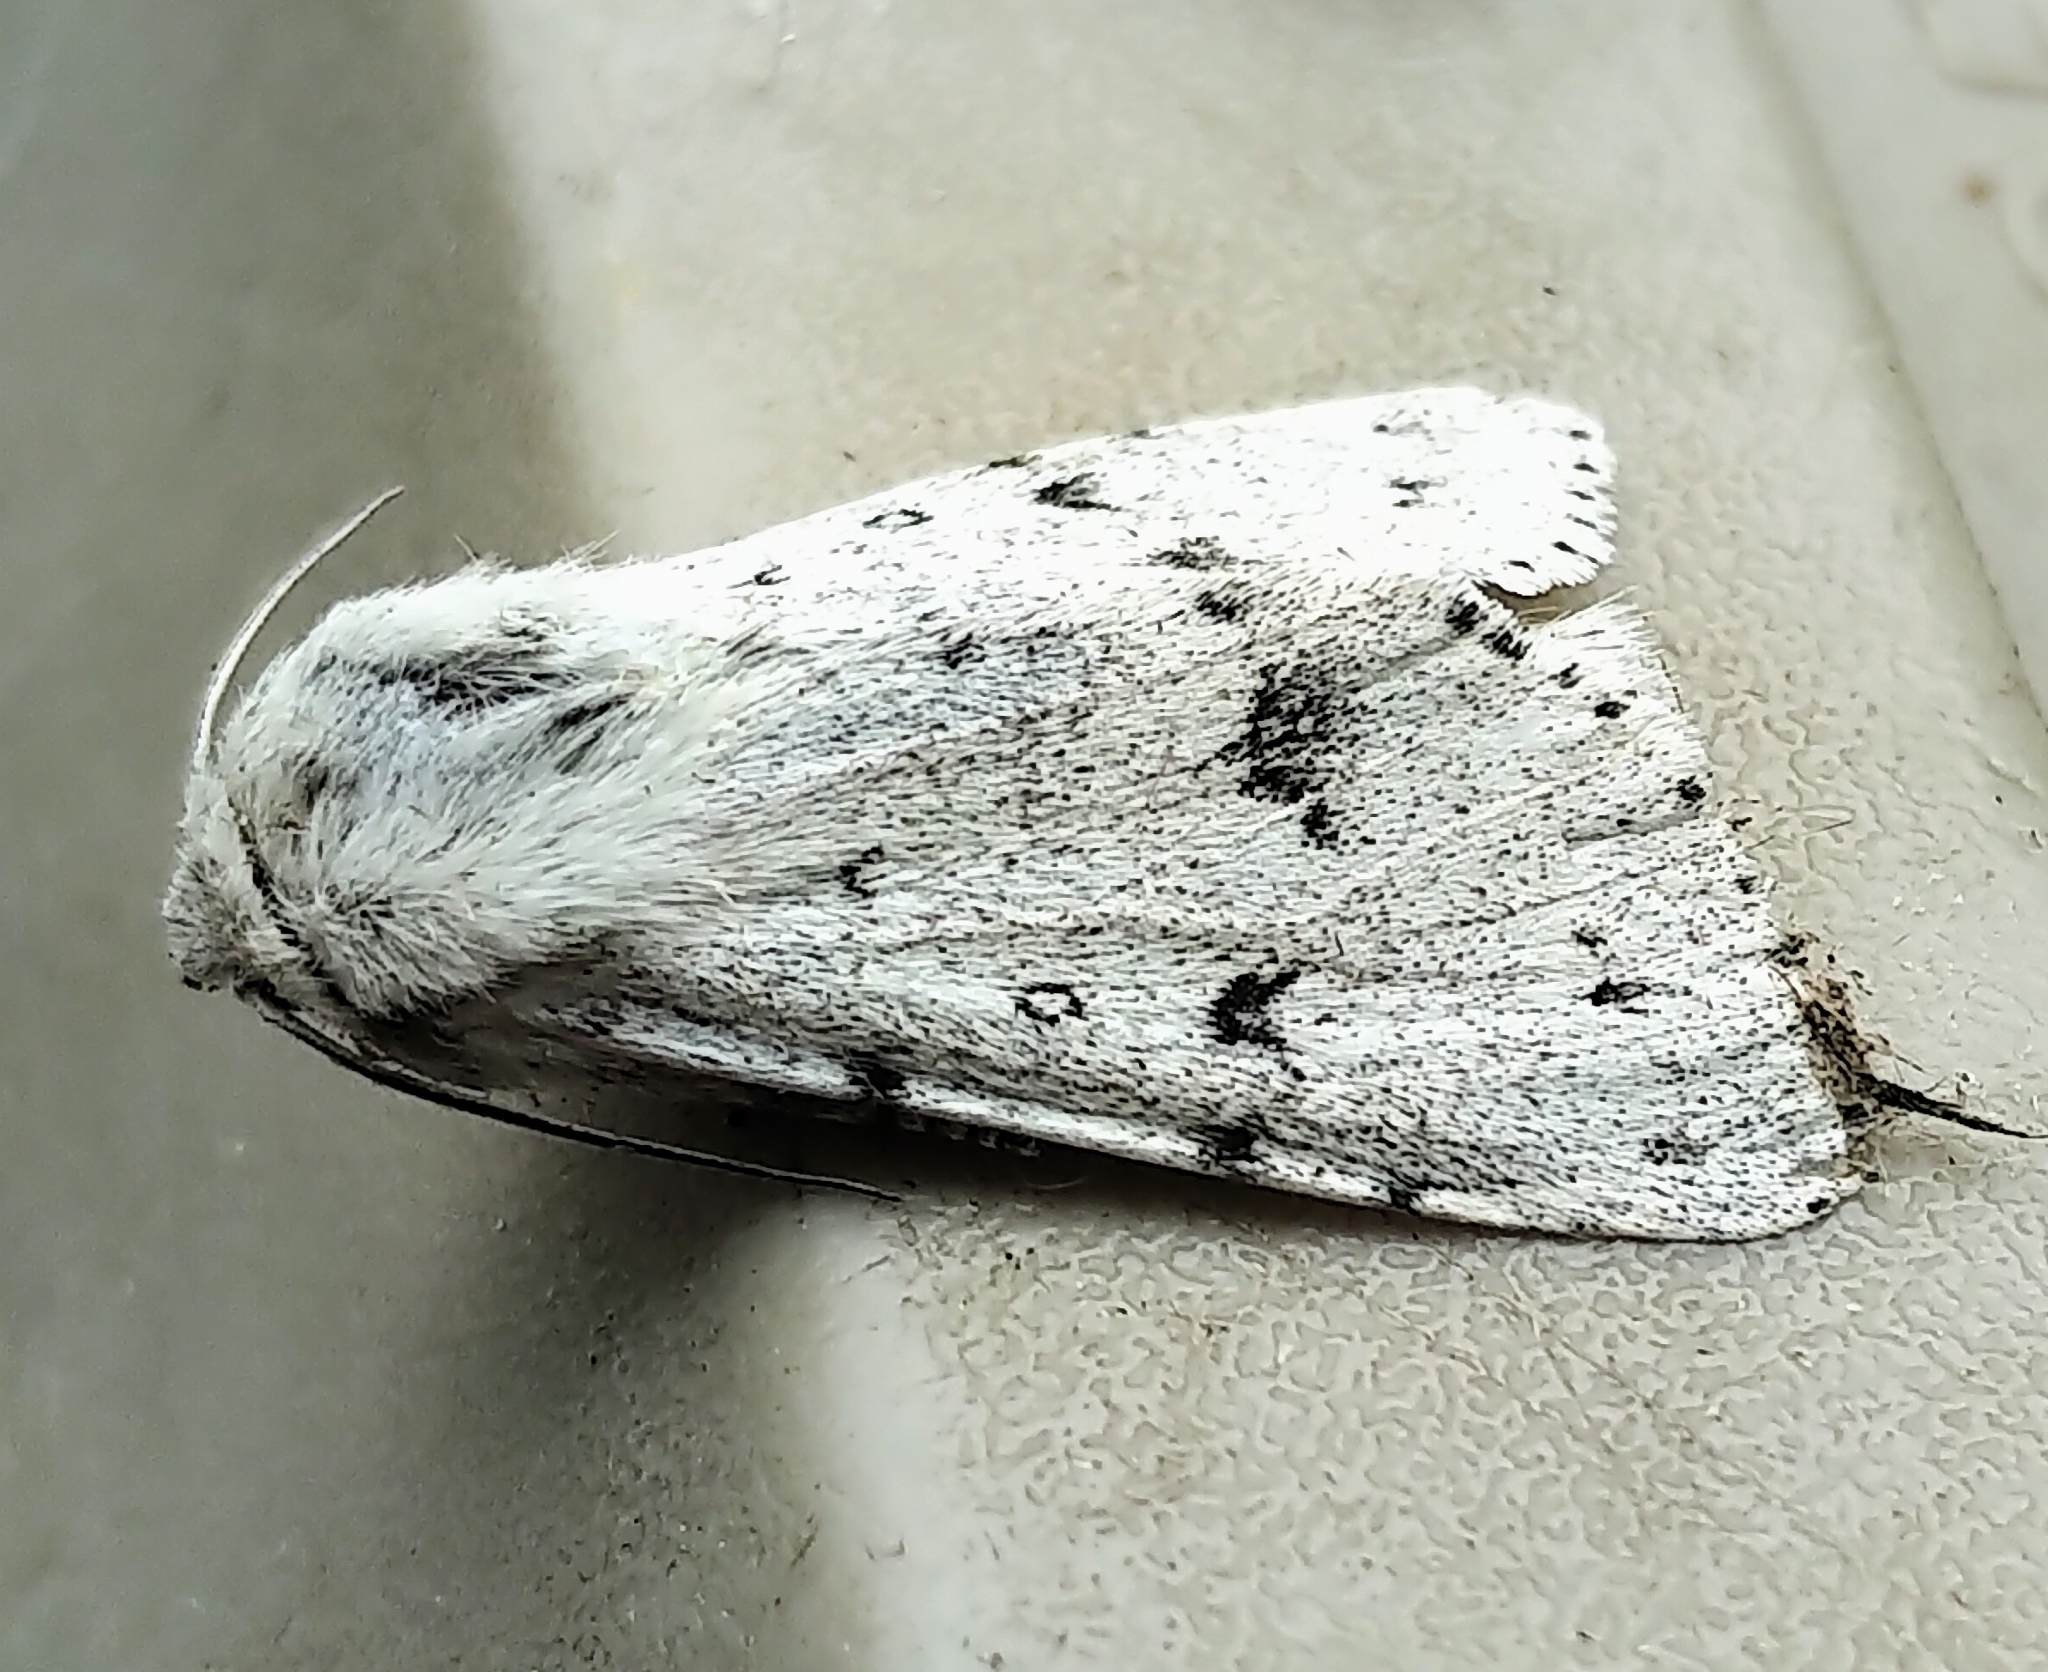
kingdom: Animalia
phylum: Arthropoda
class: Insecta
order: Lepidoptera
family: Noctuidae
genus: Acronicta
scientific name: Acronicta vulpina
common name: Miller dagger
